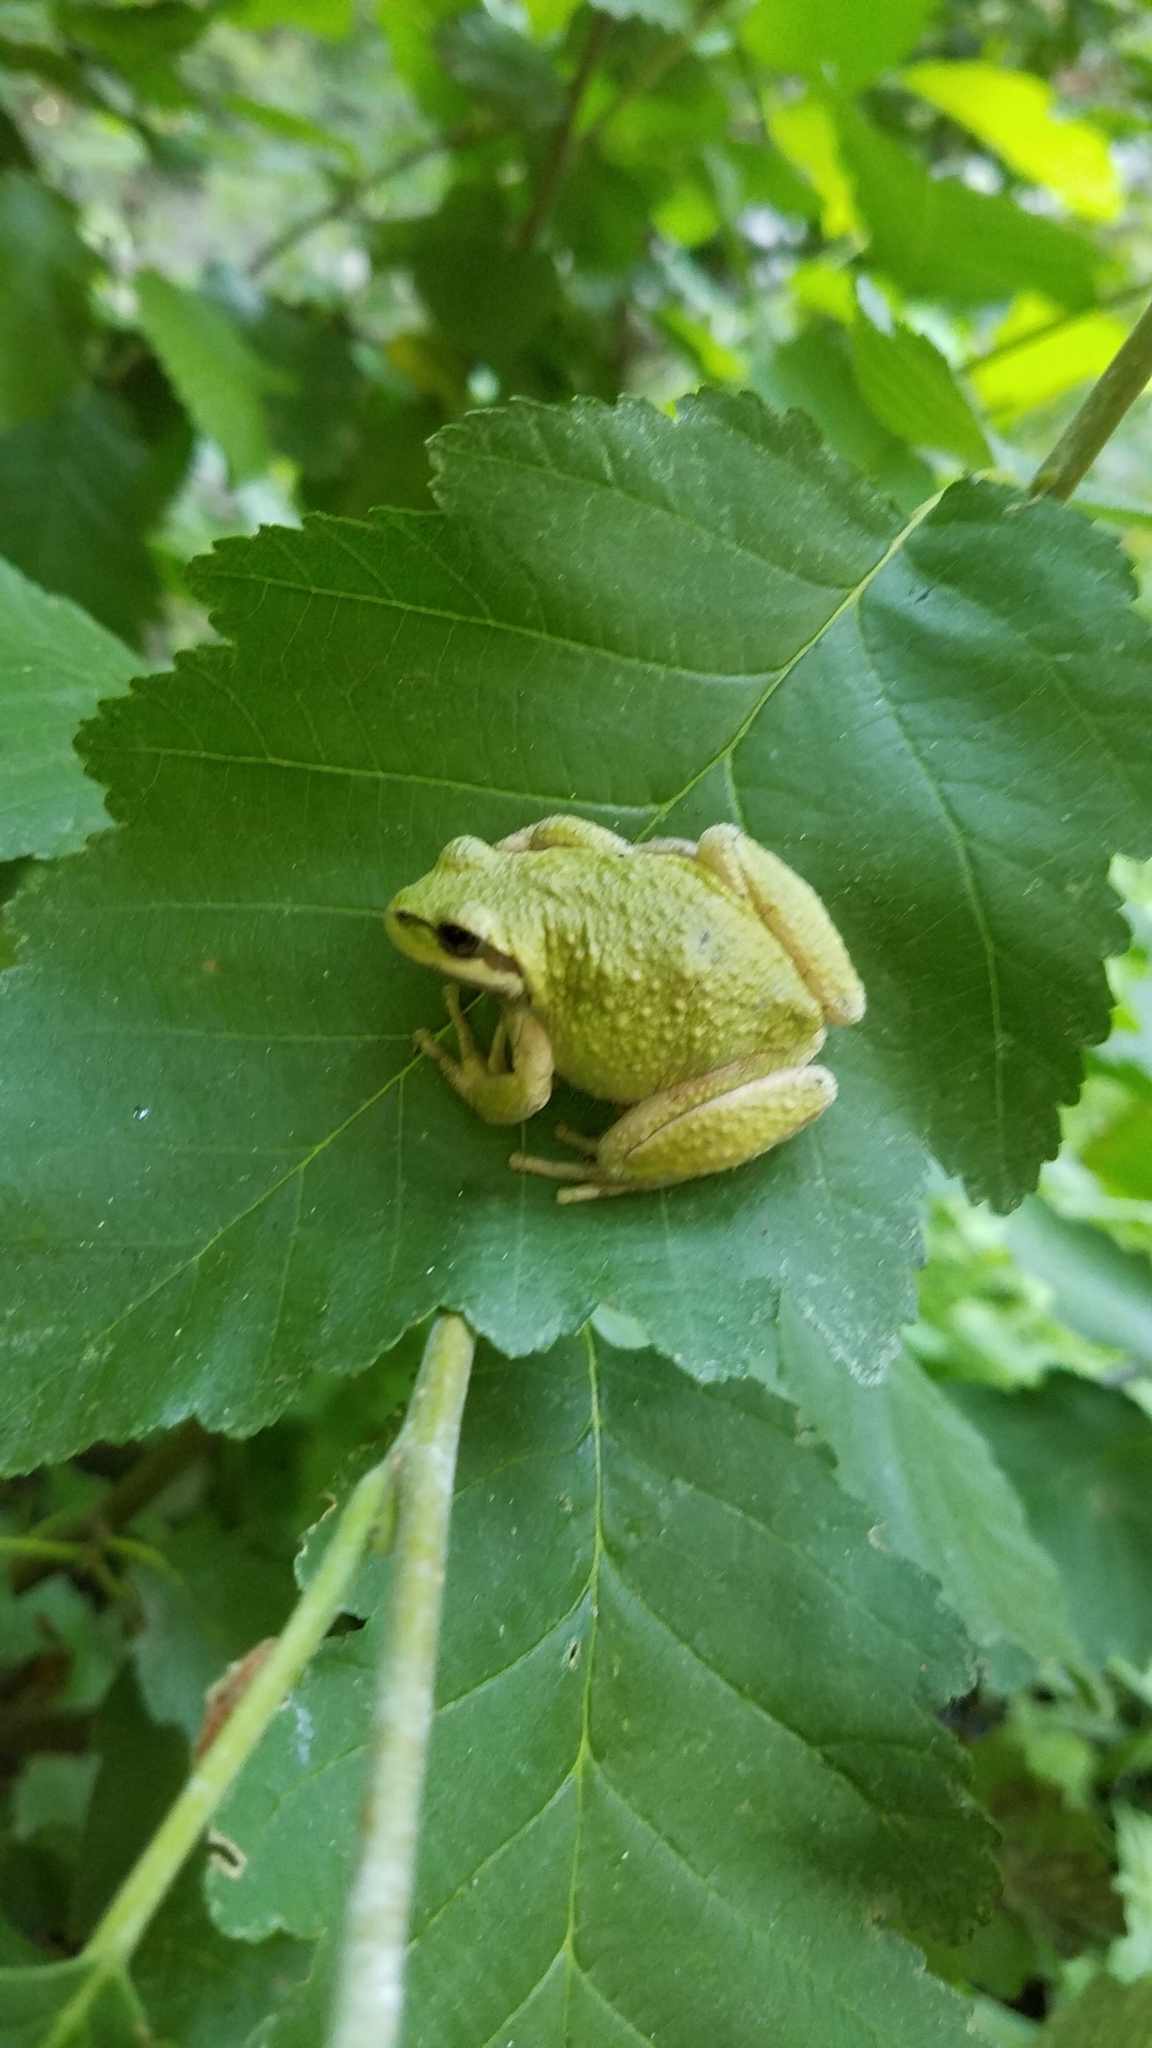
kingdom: Animalia
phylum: Chordata
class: Amphibia
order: Anura
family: Hylidae
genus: Pseudacris
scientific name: Pseudacris regilla
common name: Pacific chorus frog
